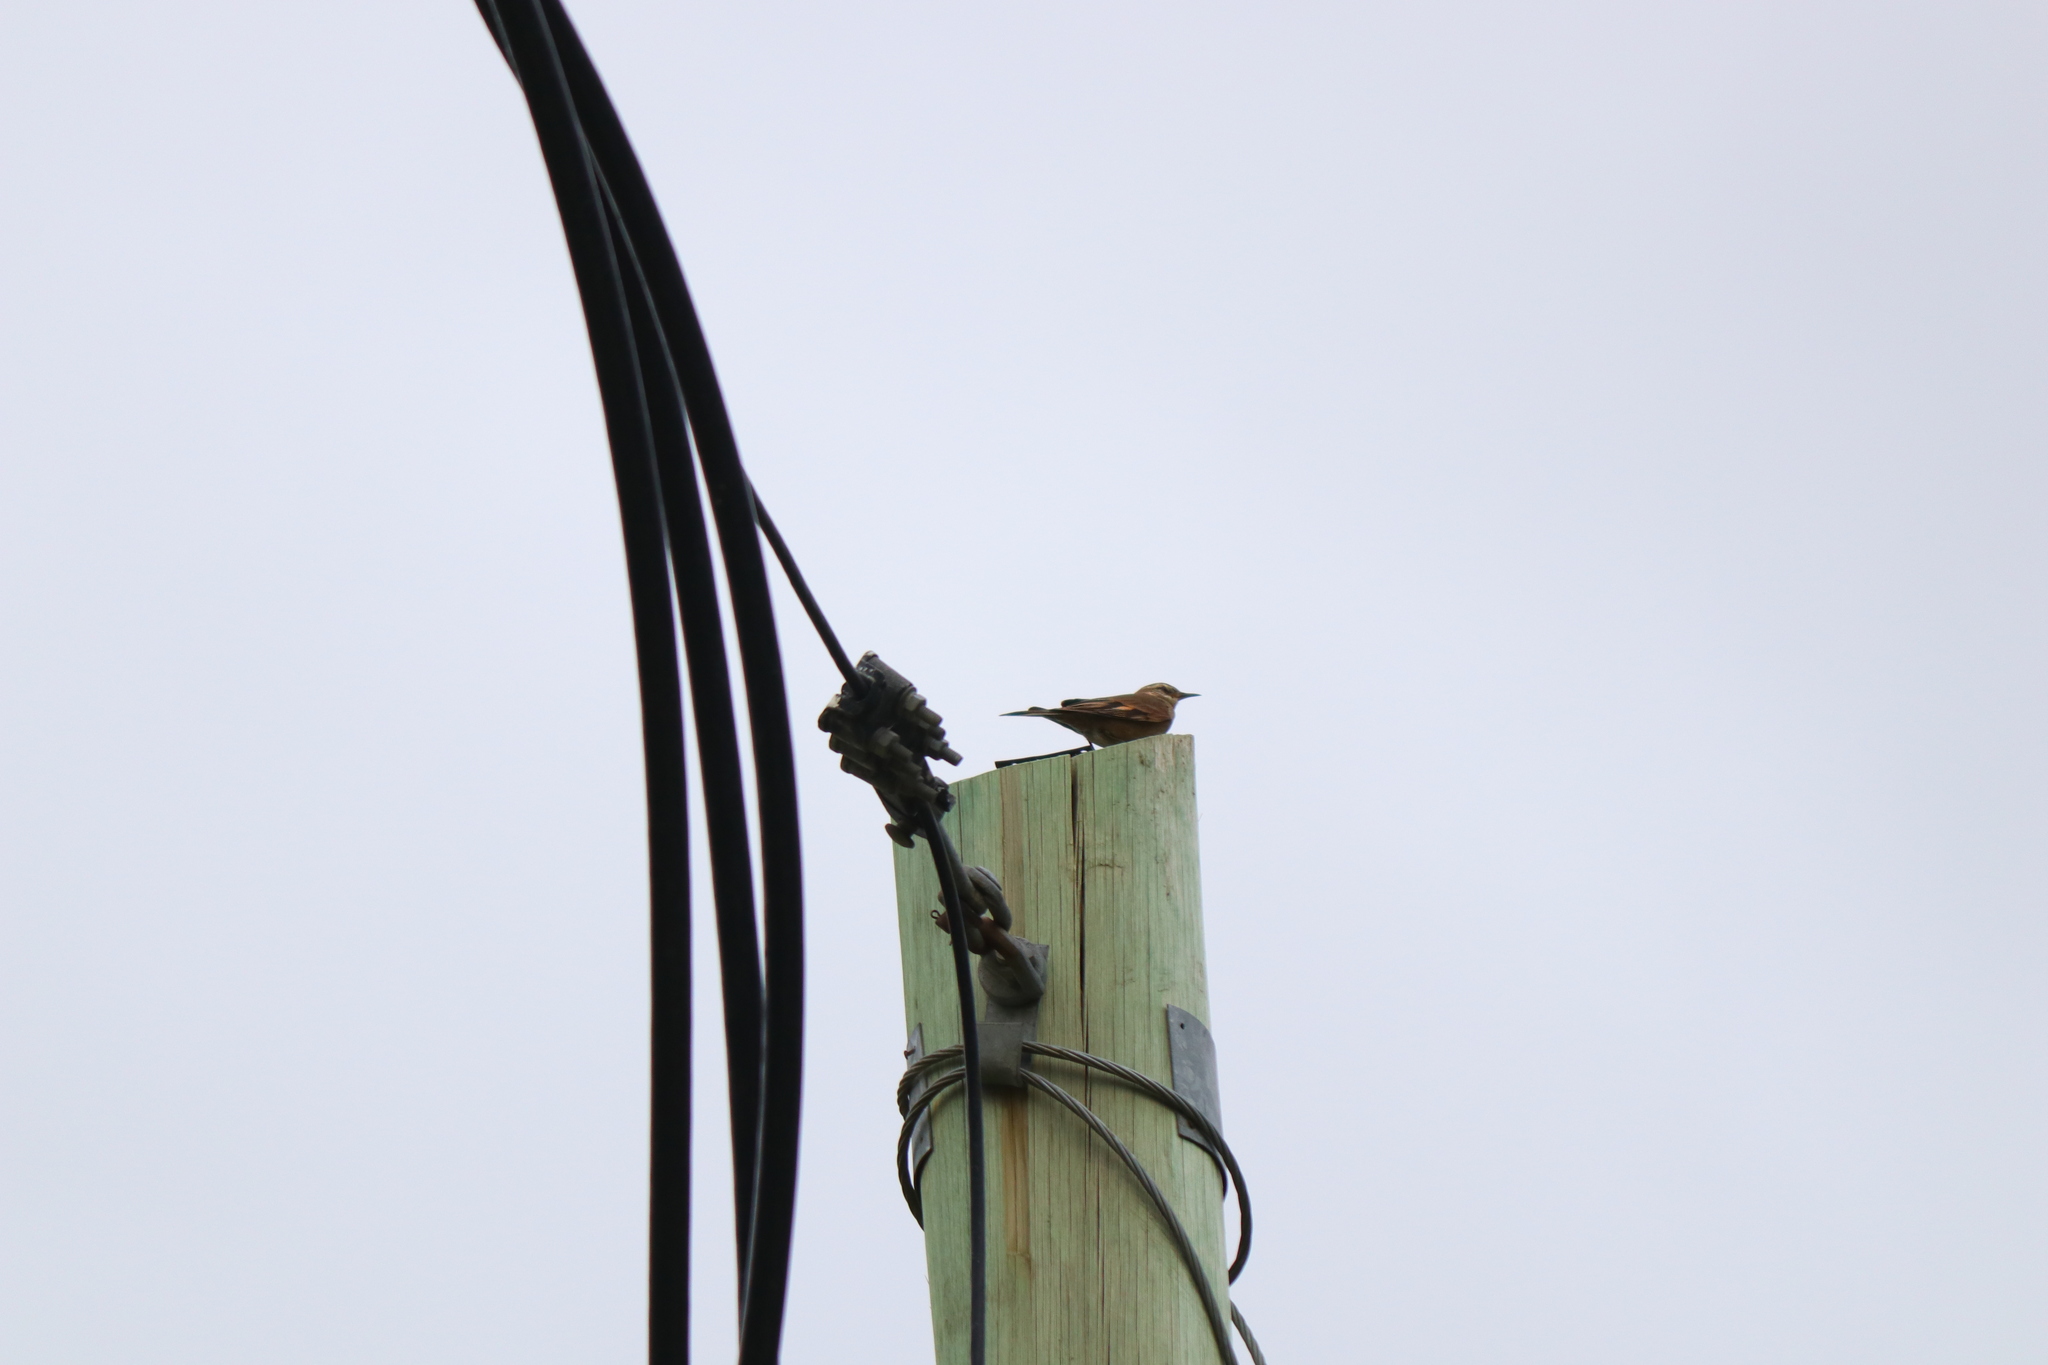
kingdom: Animalia
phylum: Chordata
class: Aves
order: Passeriformes
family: Furnariidae
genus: Cinclodes
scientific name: Cinclodes patagonicus
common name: Dark-bellied cinclodes
